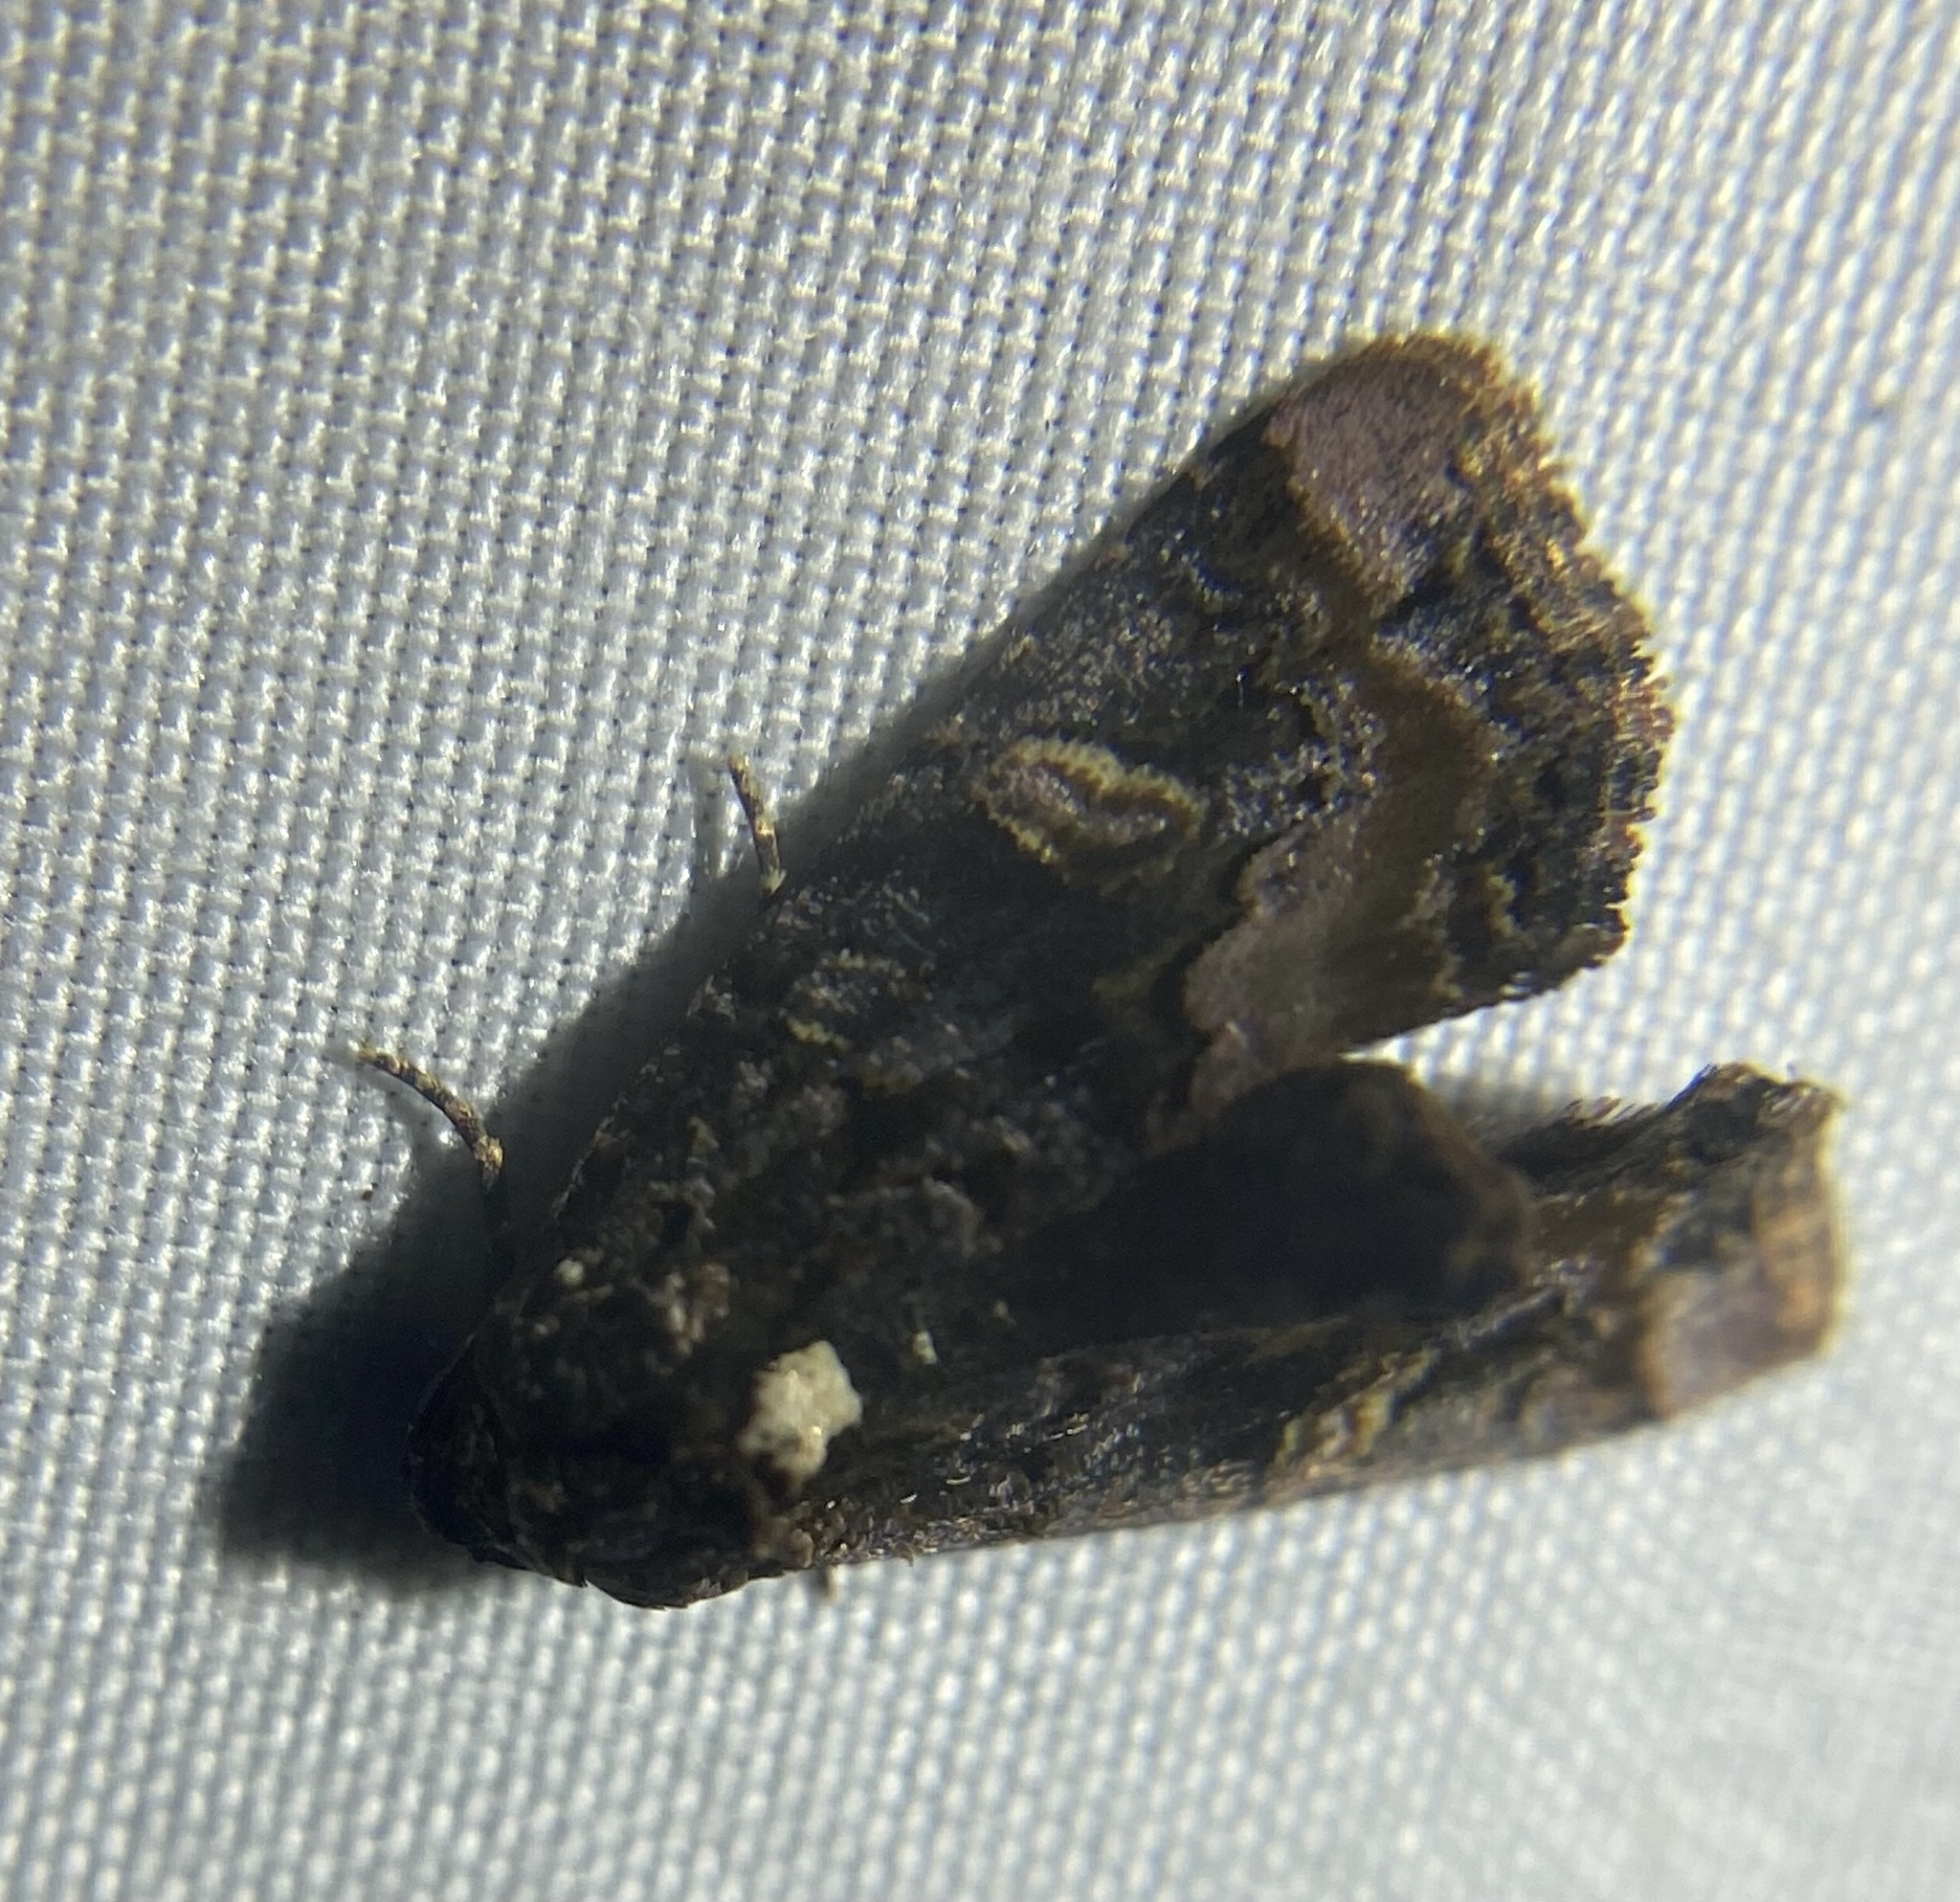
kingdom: Animalia
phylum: Arthropoda
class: Insecta
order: Lepidoptera
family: Noctuidae
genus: Homophoberia
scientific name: Homophoberia apicosa
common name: Black wedge-spot
